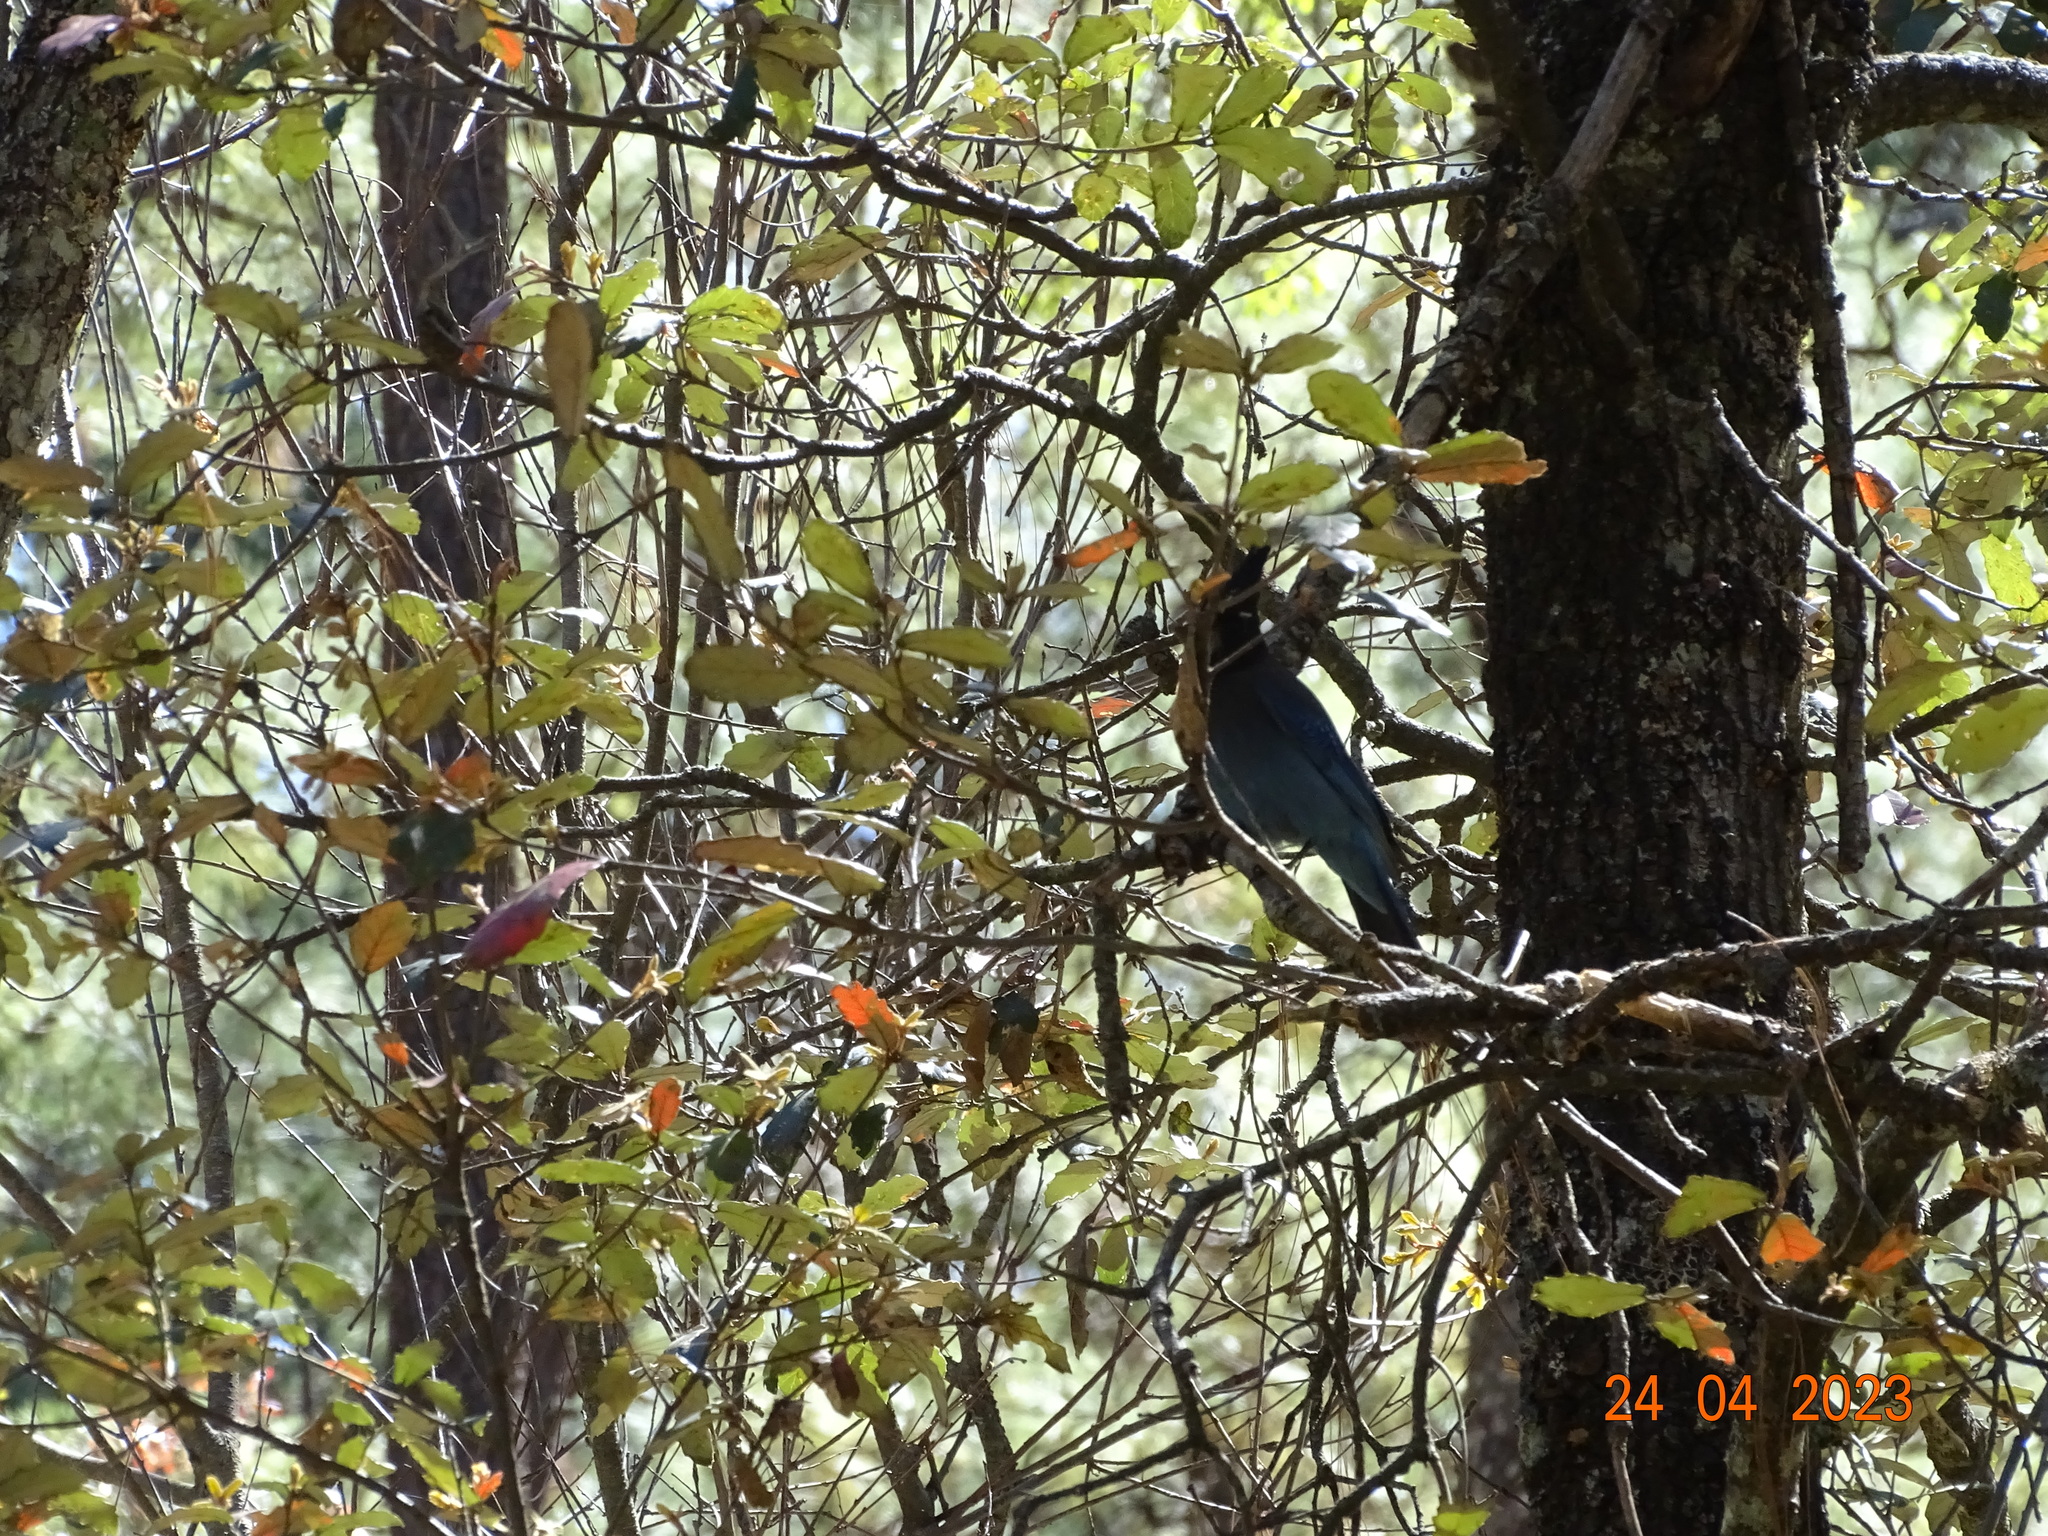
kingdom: Animalia
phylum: Chordata
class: Aves
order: Passeriformes
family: Corvidae
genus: Cyanocitta
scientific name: Cyanocitta stelleri
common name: Steller's jay
